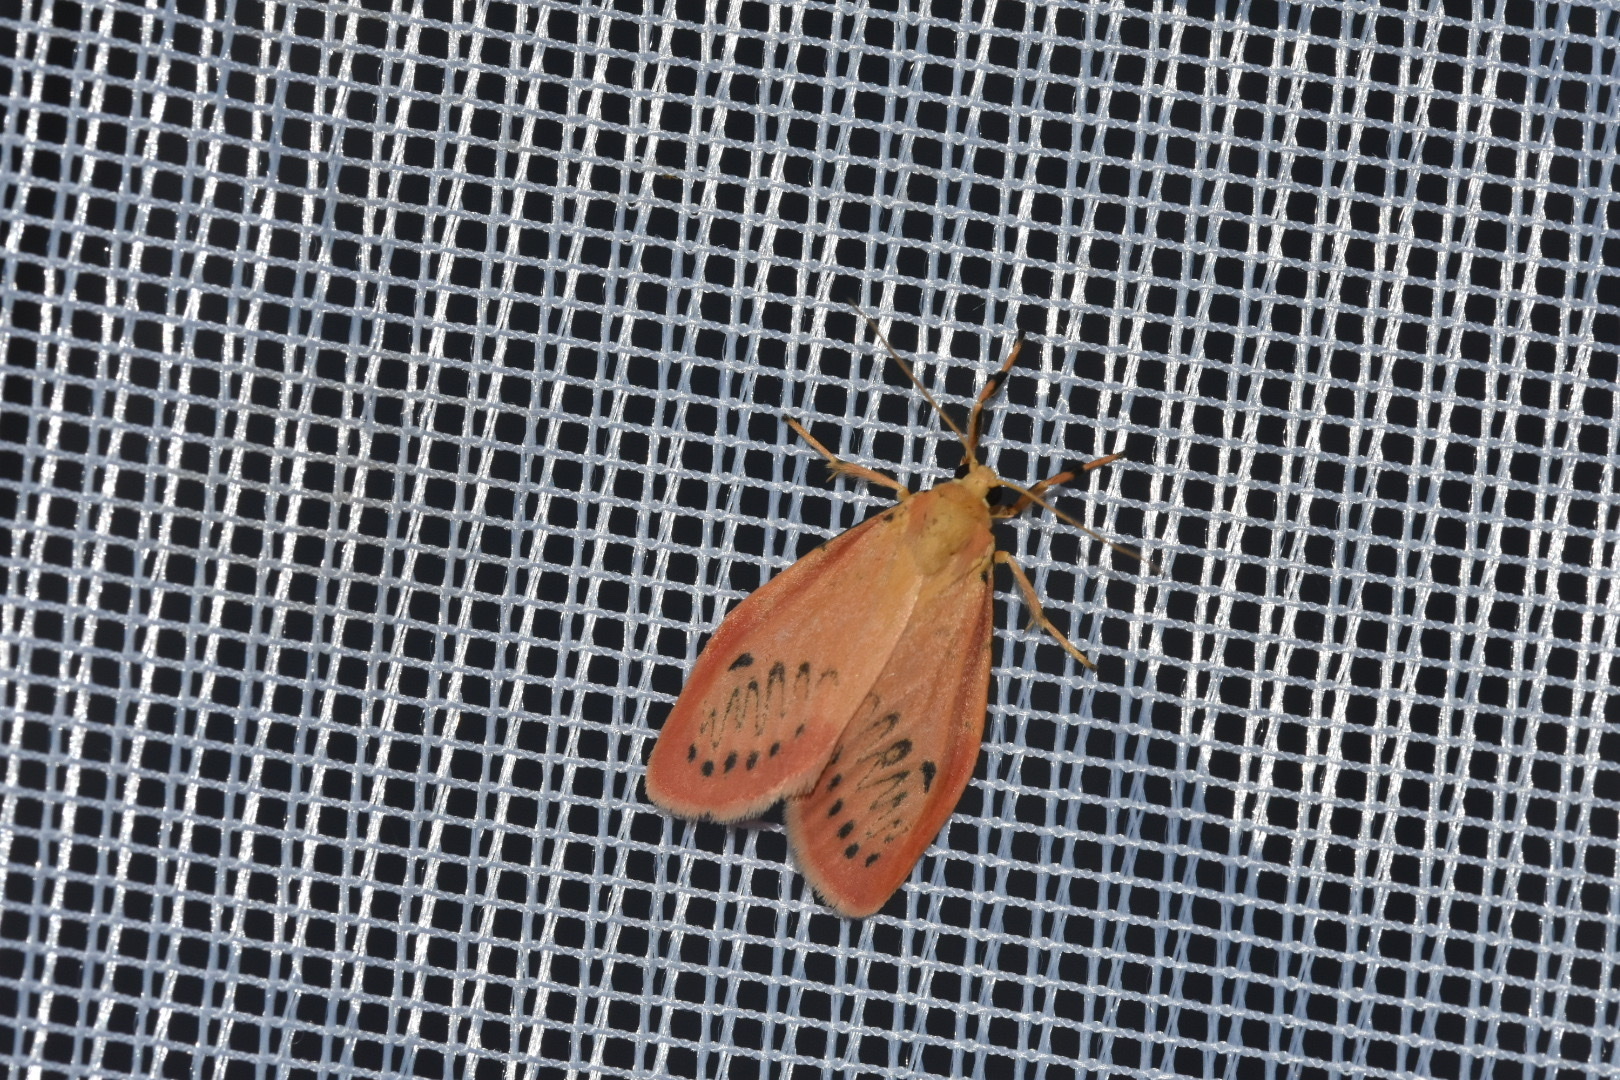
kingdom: Animalia
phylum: Arthropoda
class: Insecta
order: Lepidoptera
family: Erebidae
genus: Miltochrista
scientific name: Miltochrista miniata
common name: Rosy footman
